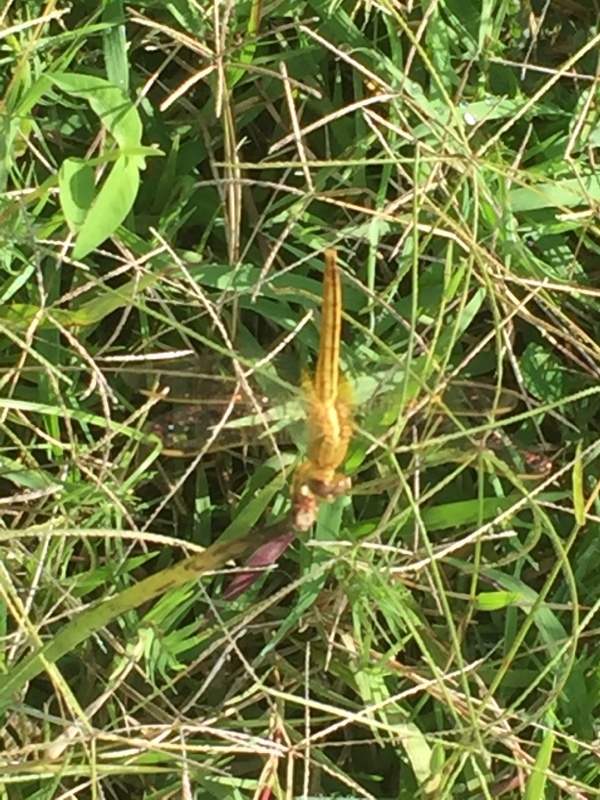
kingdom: Animalia
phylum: Arthropoda
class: Insecta
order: Odonata
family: Libellulidae
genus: Crocothemis
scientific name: Crocothemis servilia
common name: Scarlet skimmer
